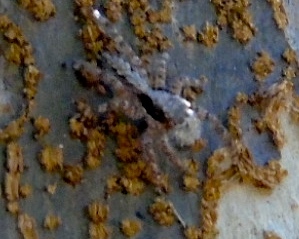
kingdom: Animalia
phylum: Arthropoda
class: Arachnida
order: Araneae
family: Salticidae
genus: Balmaceda
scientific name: Balmaceda
